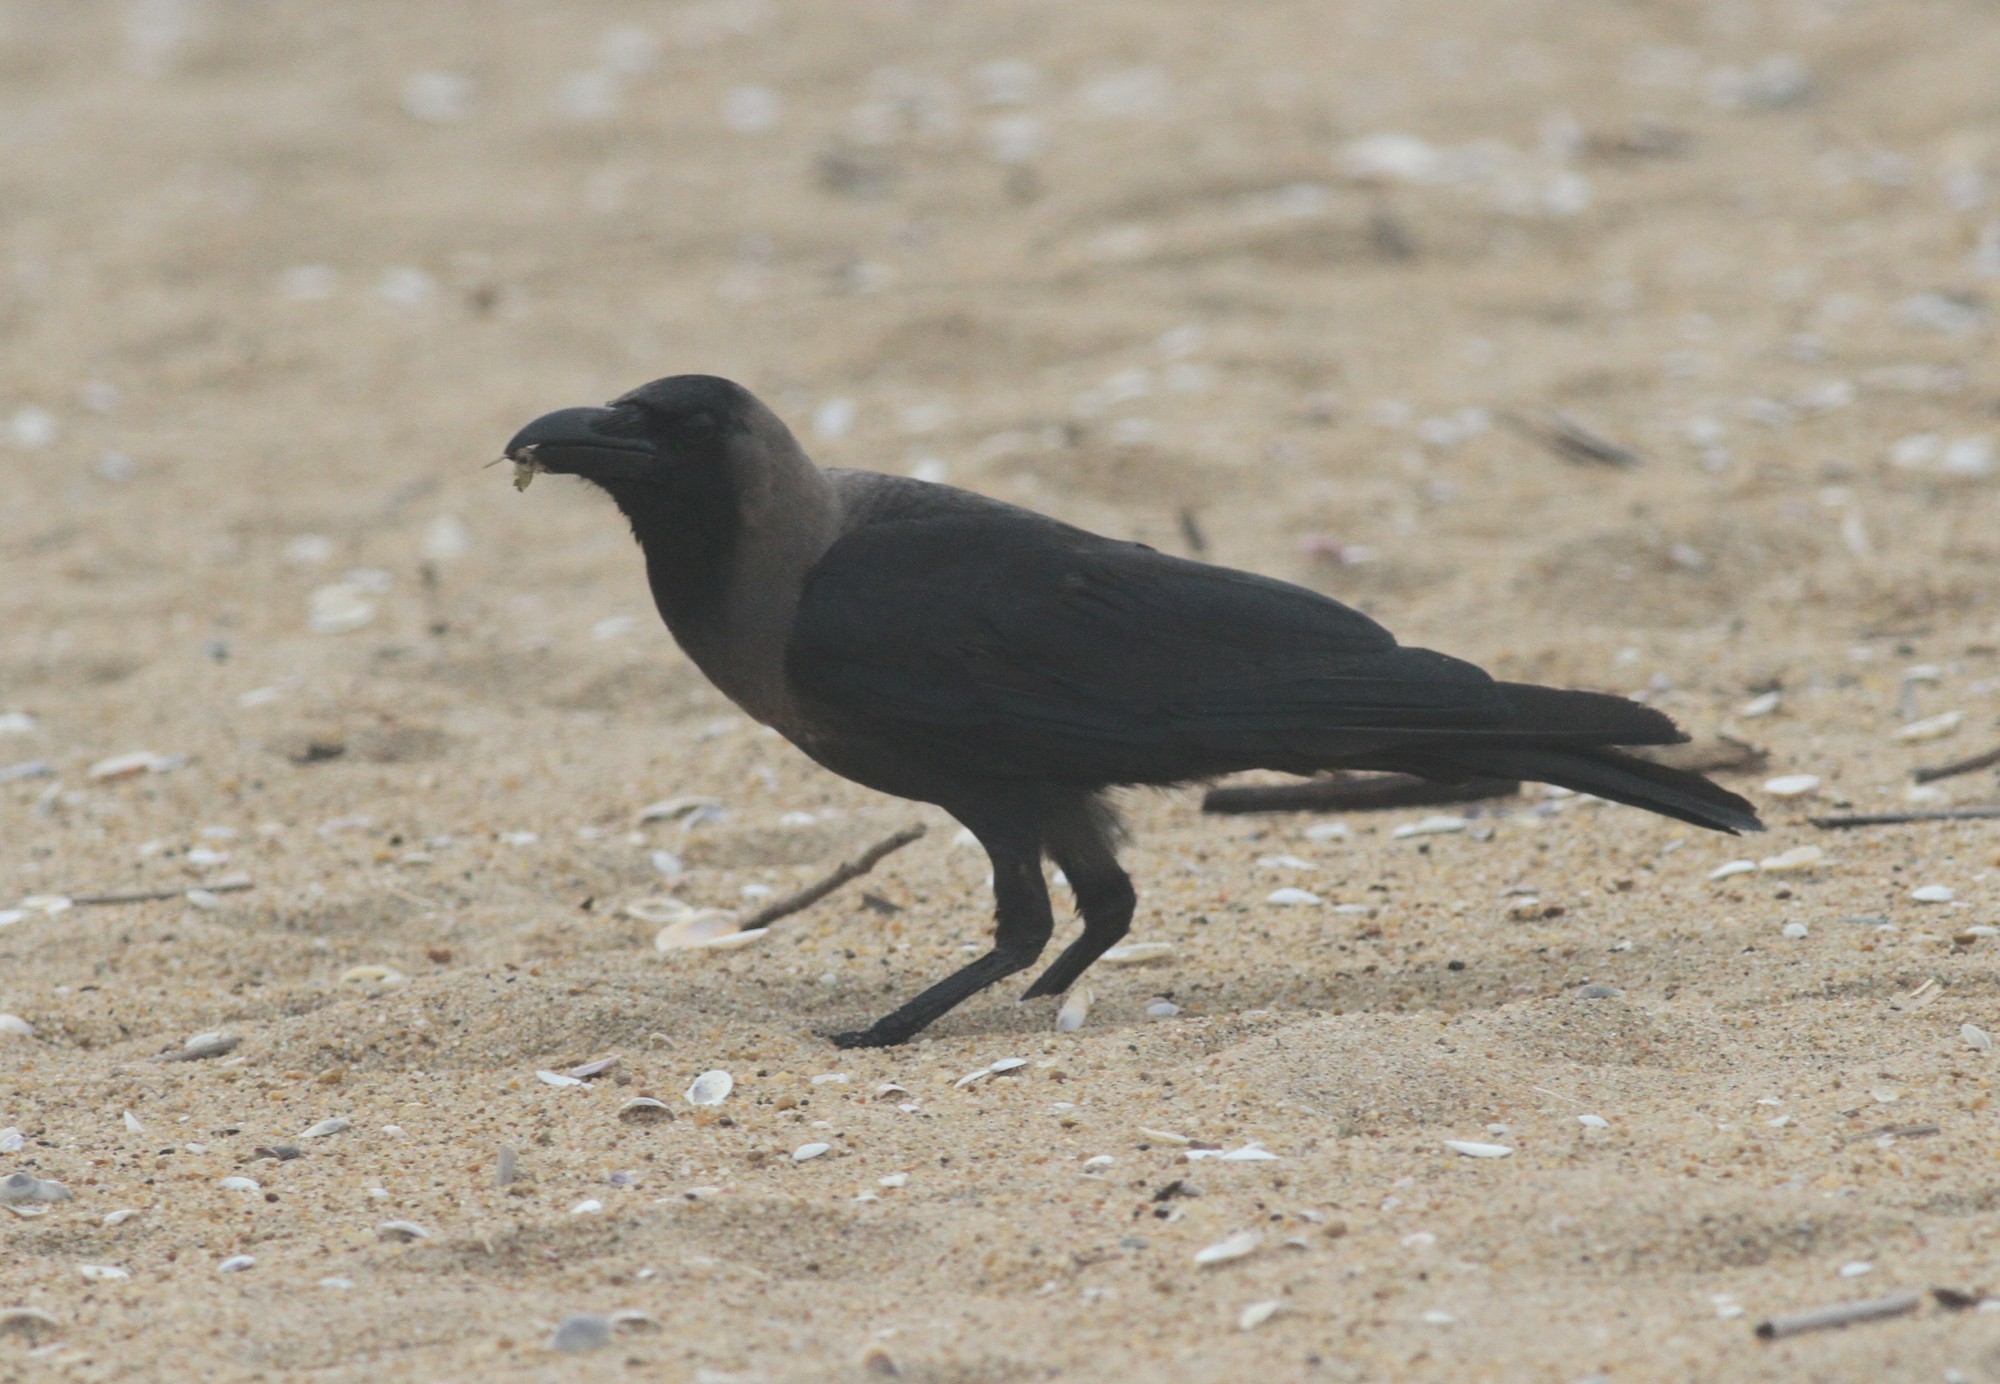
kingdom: Animalia
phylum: Chordata
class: Aves
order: Passeriformes
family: Corvidae
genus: Corvus
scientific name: Corvus splendens
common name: House crow
